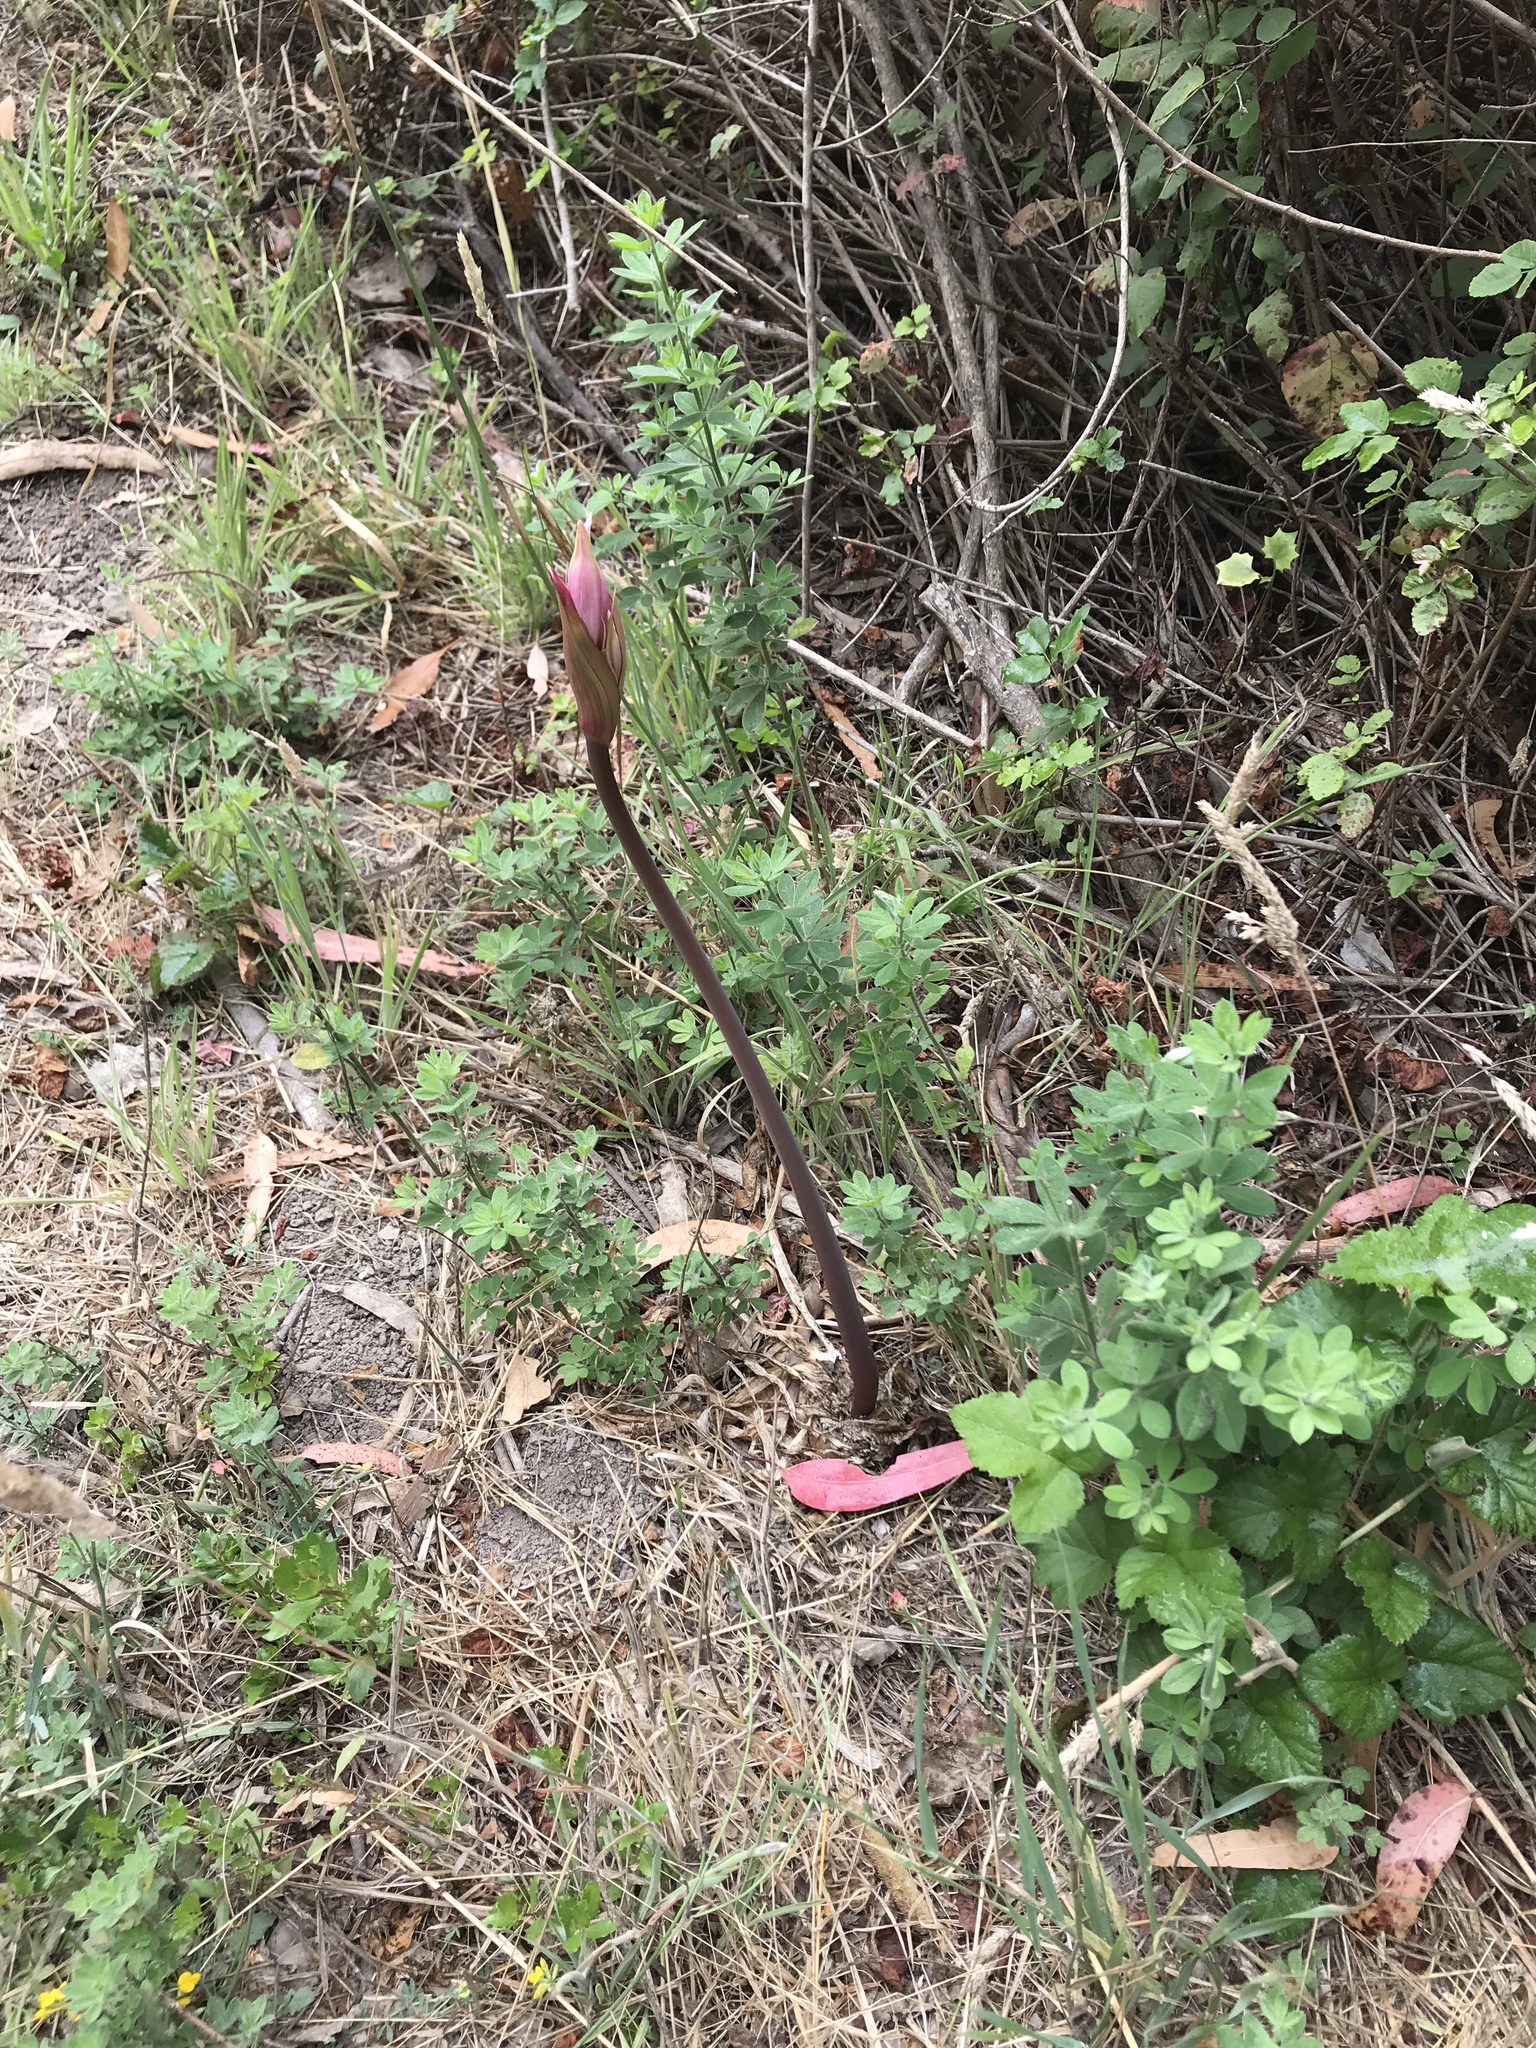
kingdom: Plantae
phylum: Tracheophyta
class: Liliopsida
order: Asparagales
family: Amaryllidaceae
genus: Amaryllis
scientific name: Amaryllis belladonna
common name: Jersey lily
